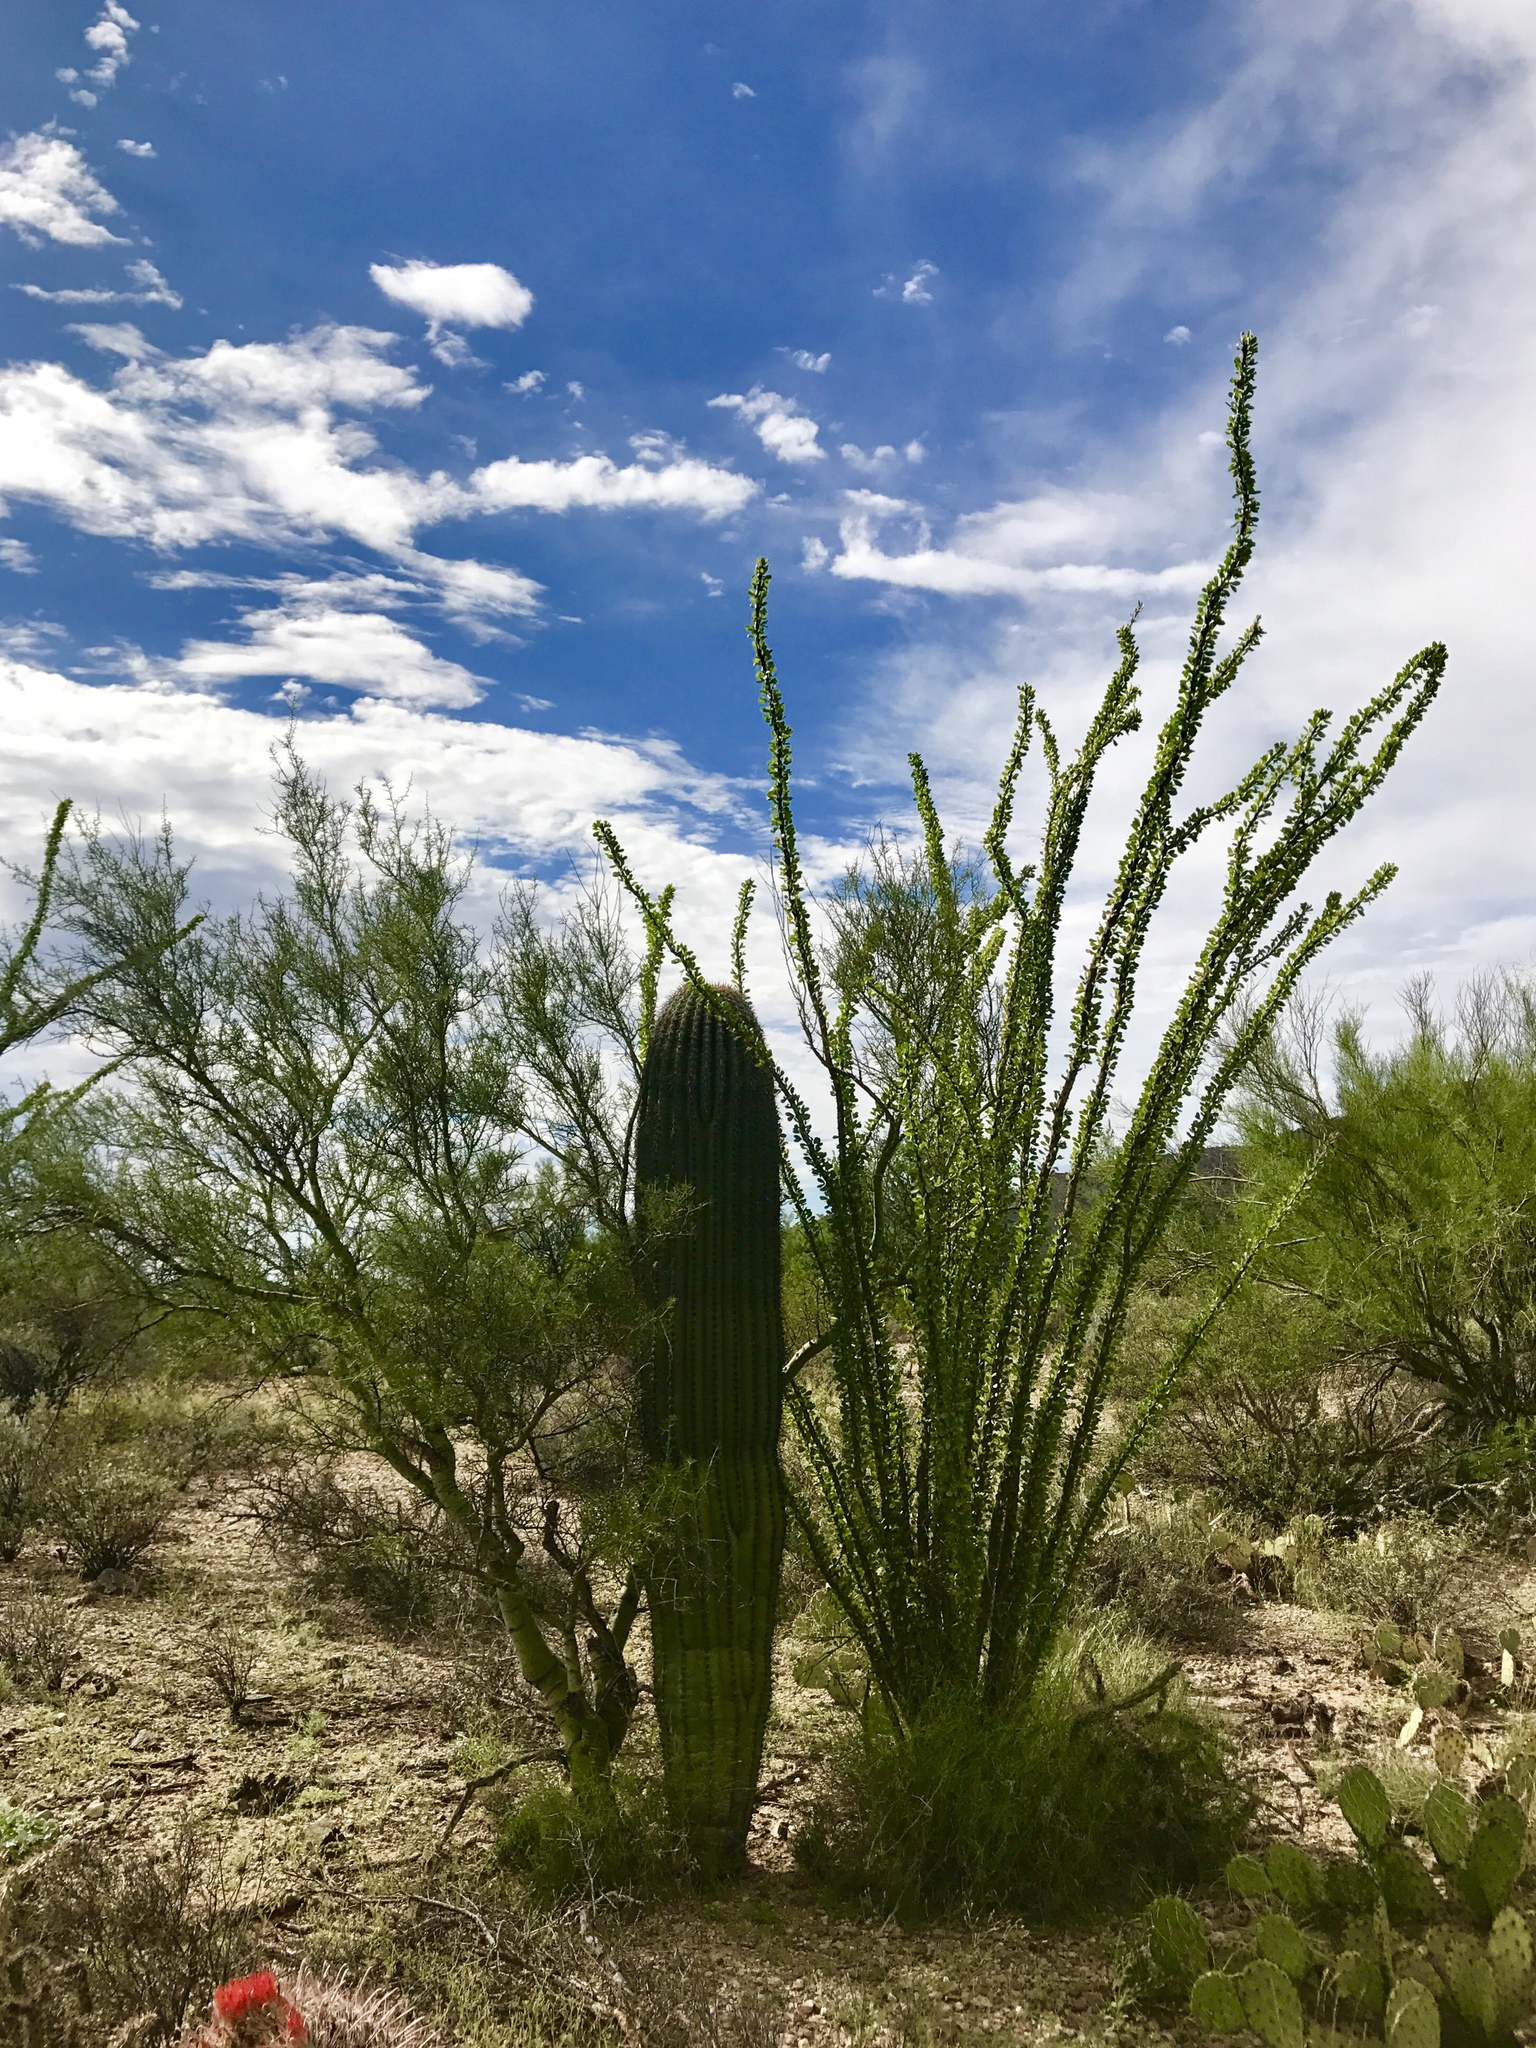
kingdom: Plantae
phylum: Tracheophyta
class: Magnoliopsida
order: Caryophyllales
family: Cactaceae
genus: Carnegiea
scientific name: Carnegiea gigantea
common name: Saguaro
